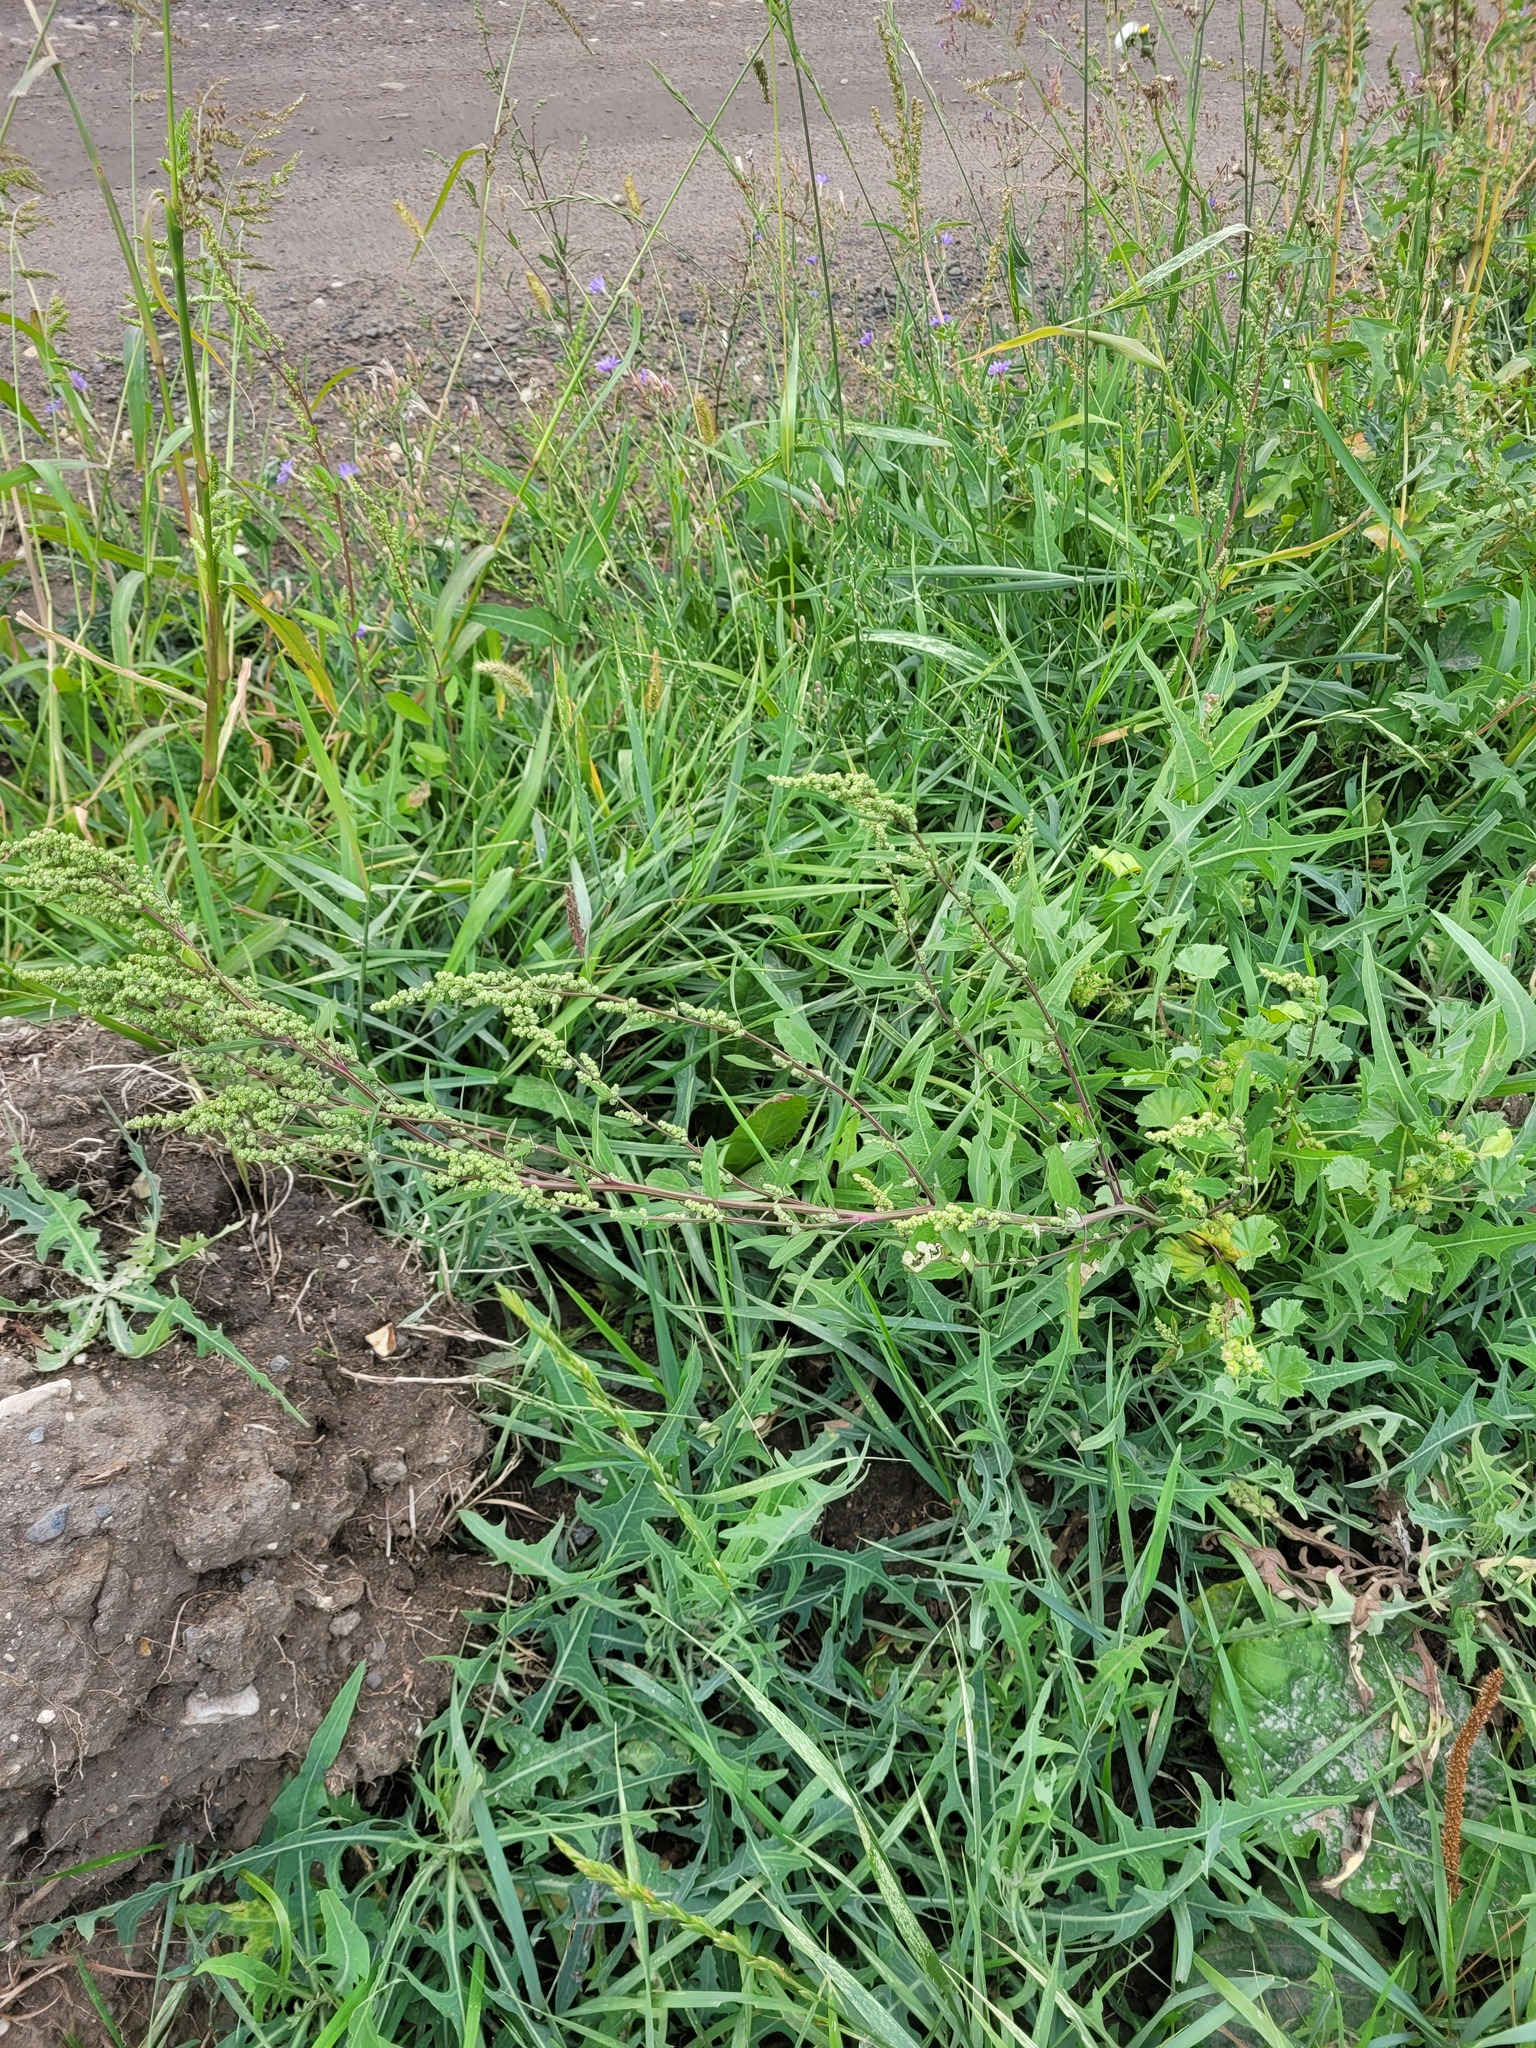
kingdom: Plantae
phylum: Tracheophyta
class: Magnoliopsida
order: Caryophyllales
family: Amaranthaceae
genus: Chenopodium
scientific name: Chenopodium betaceum
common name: Striped goosefoot
